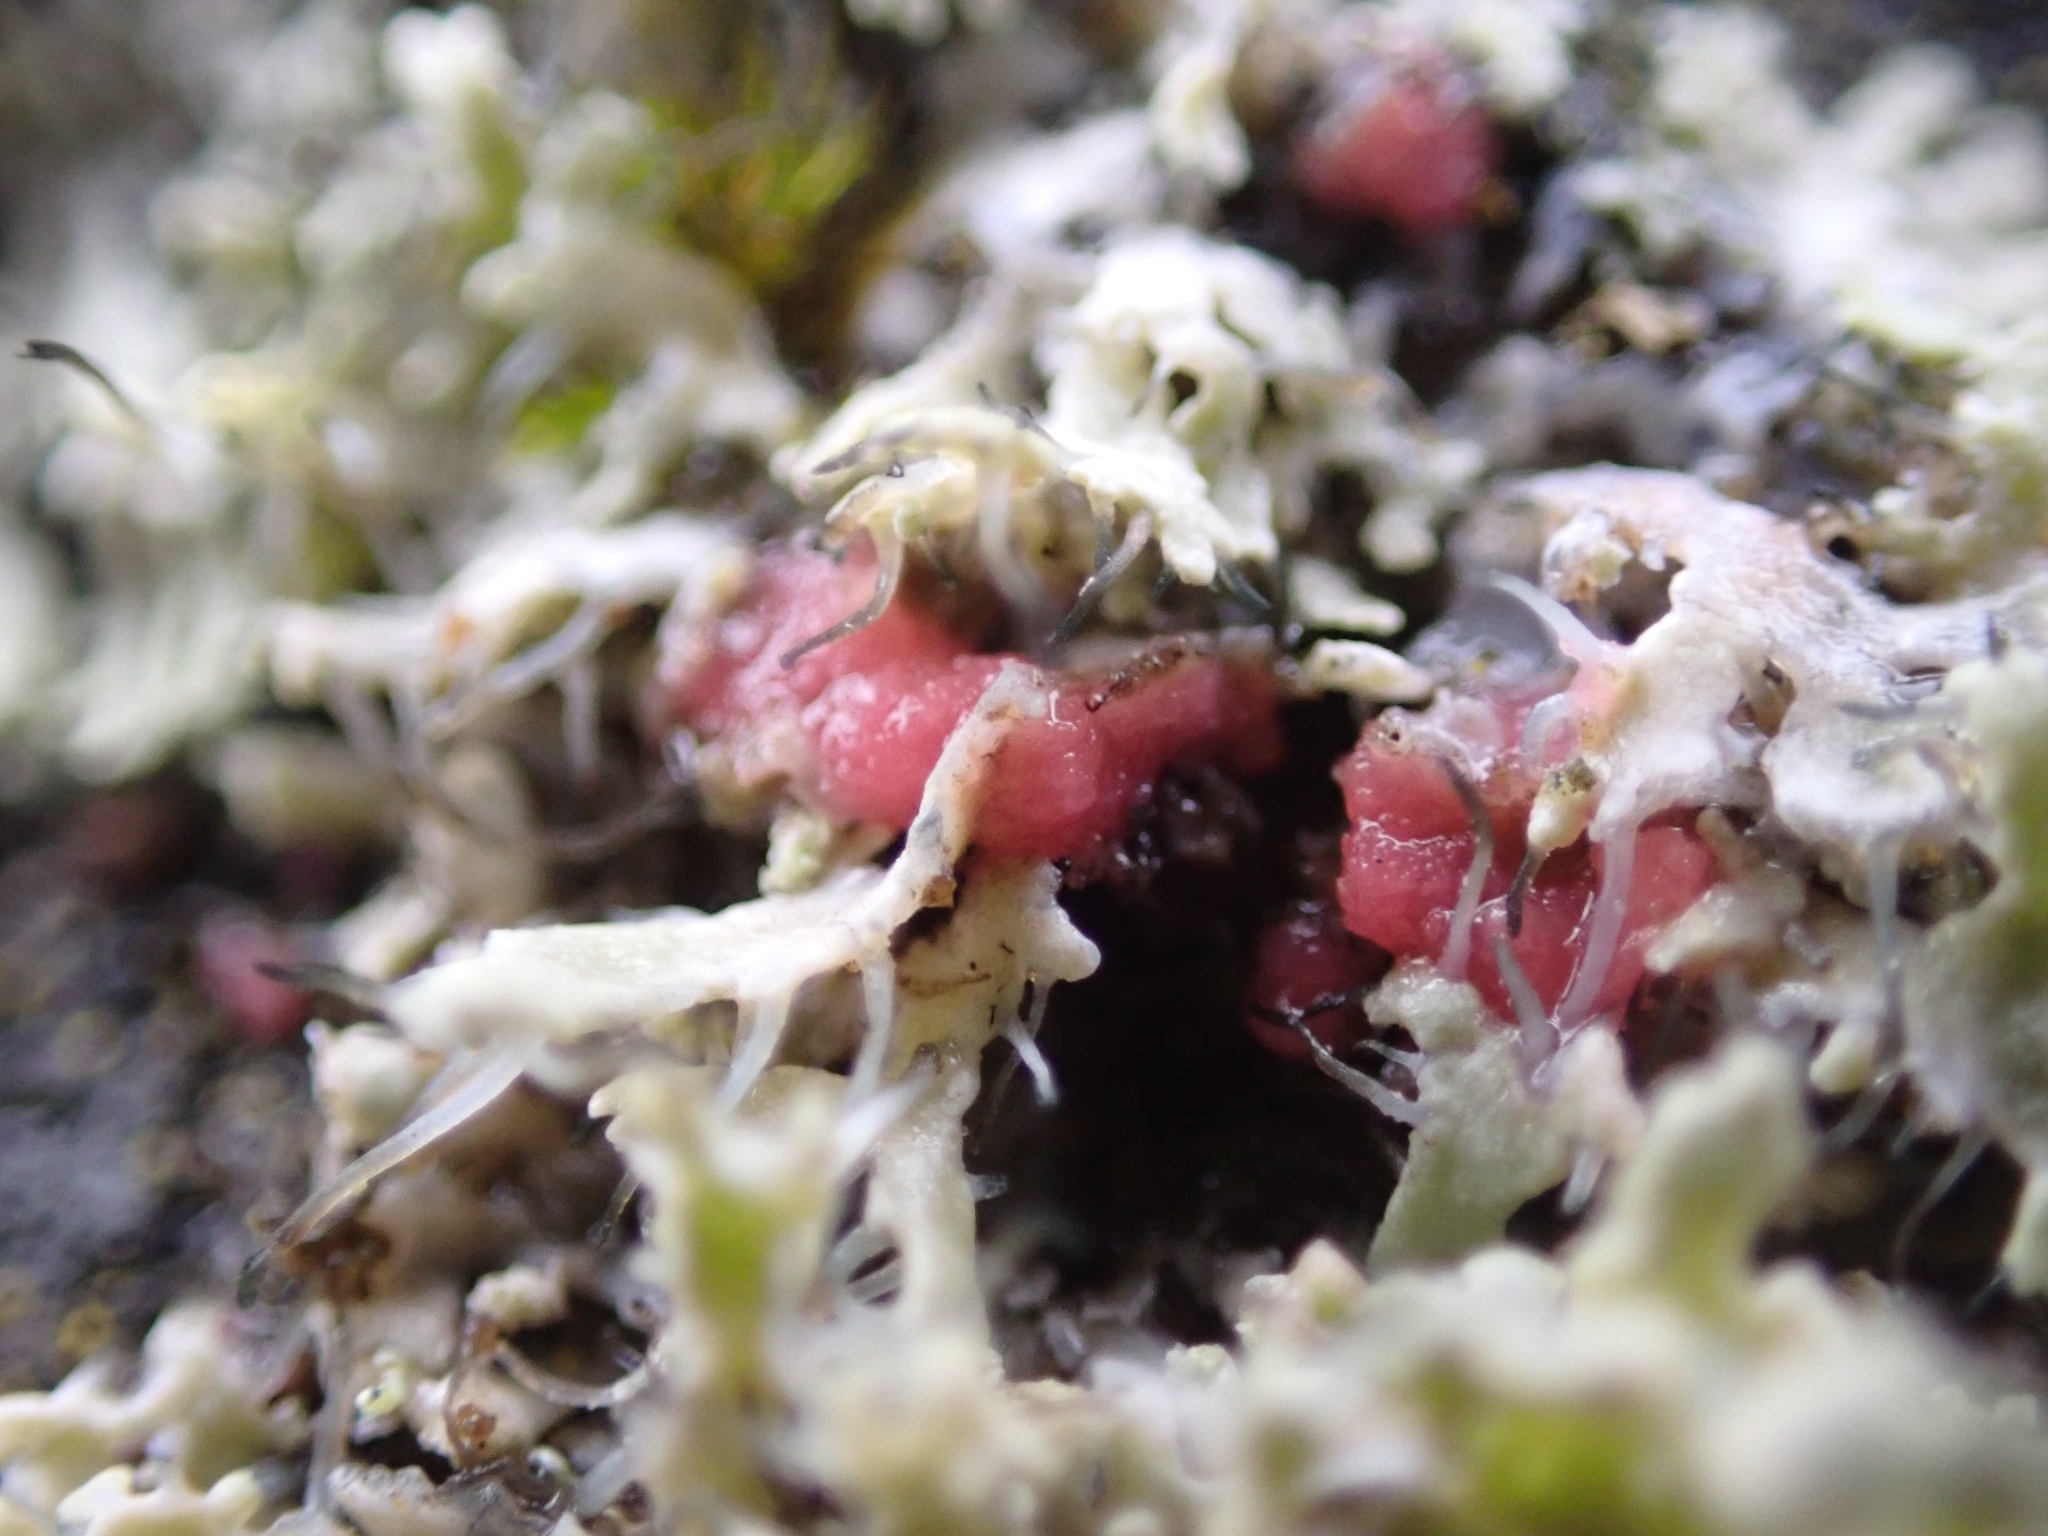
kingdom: Fungi
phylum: Ascomycota
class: Sordariomycetes
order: Hypocreales
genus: Illosporiopsis
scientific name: Illosporiopsis christiansenii
